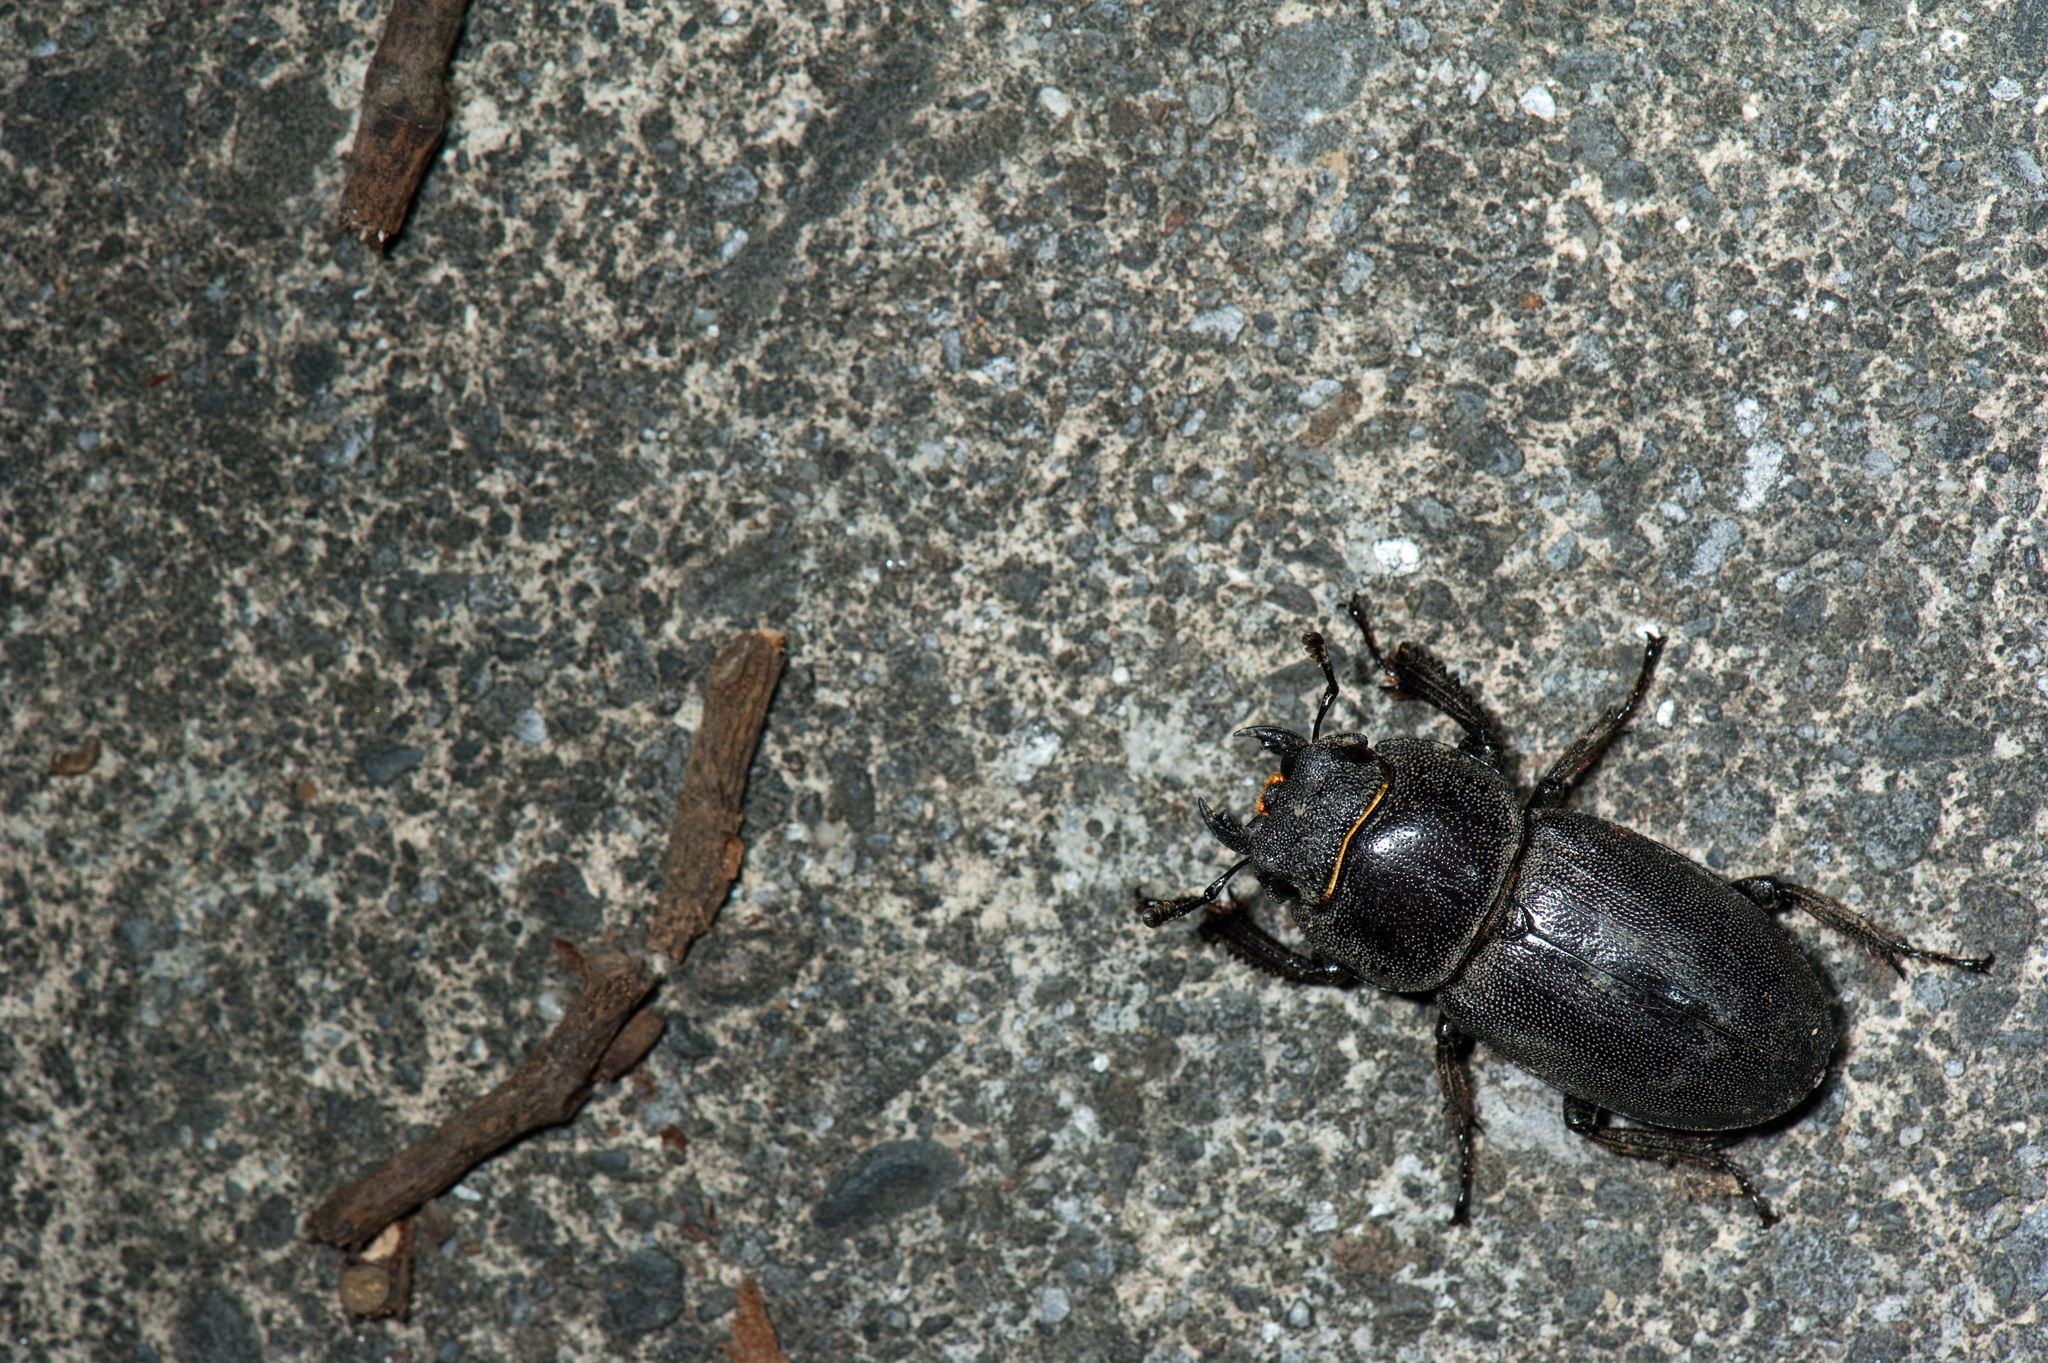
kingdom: Animalia
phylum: Arthropoda
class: Insecta
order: Coleoptera
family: Lucanidae
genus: Serrognathus
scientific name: Serrognathus kyanrauensis
